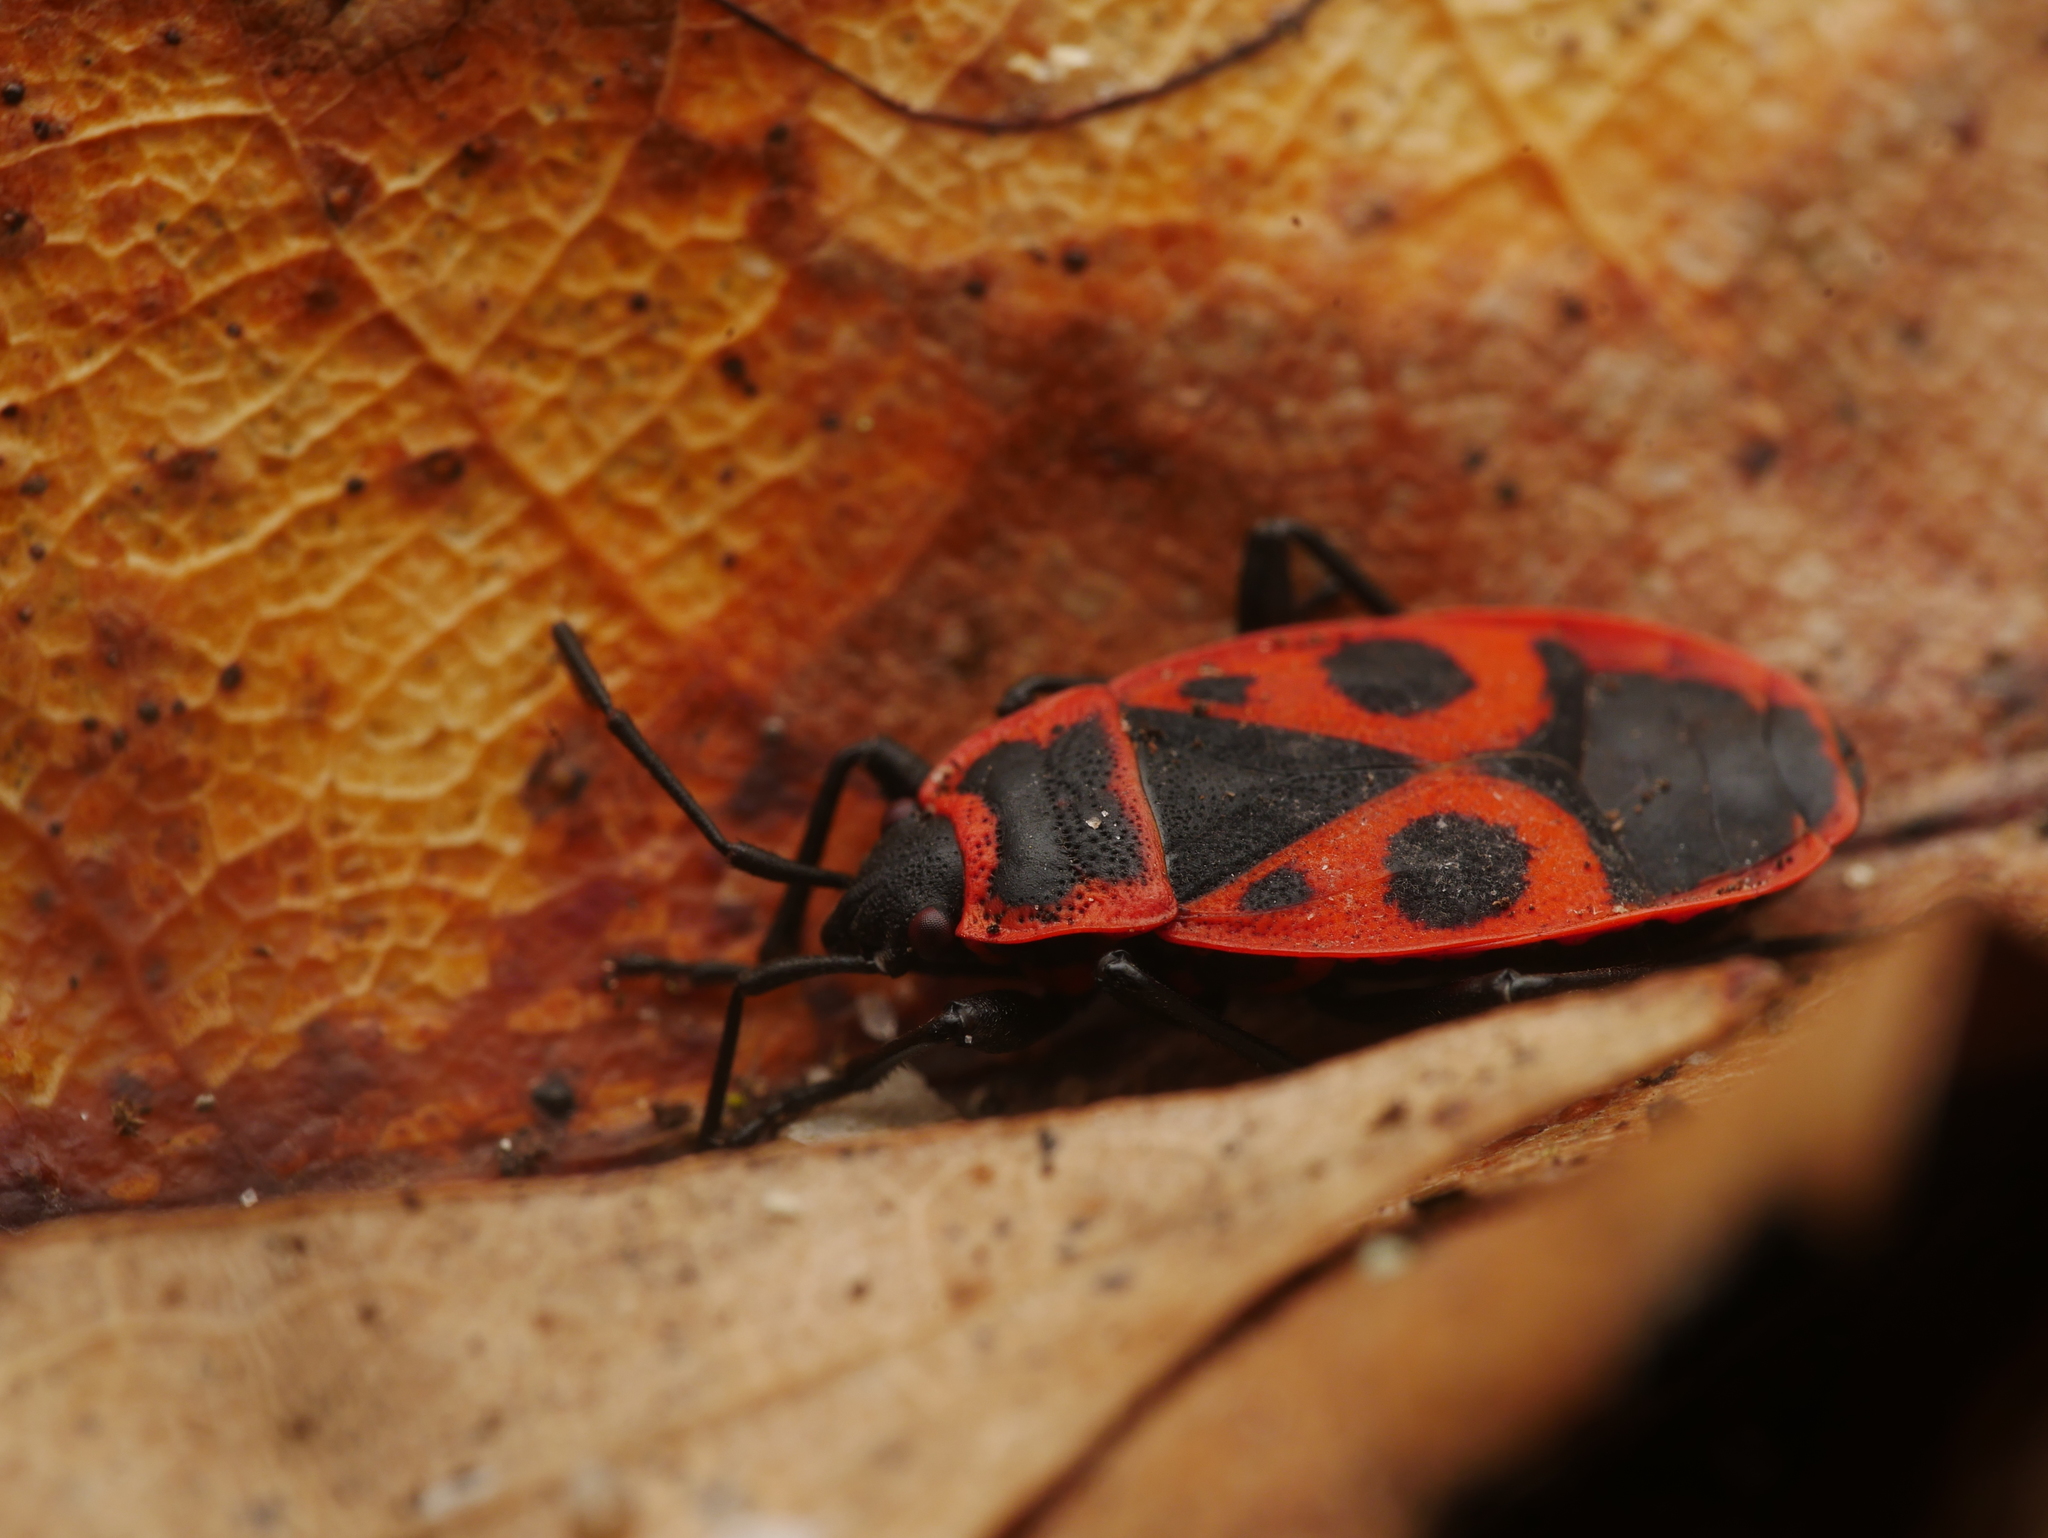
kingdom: Animalia
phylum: Arthropoda
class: Insecta
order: Hemiptera
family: Pyrrhocoridae
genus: Pyrrhocoris
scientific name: Pyrrhocoris apterus
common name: Firebug
